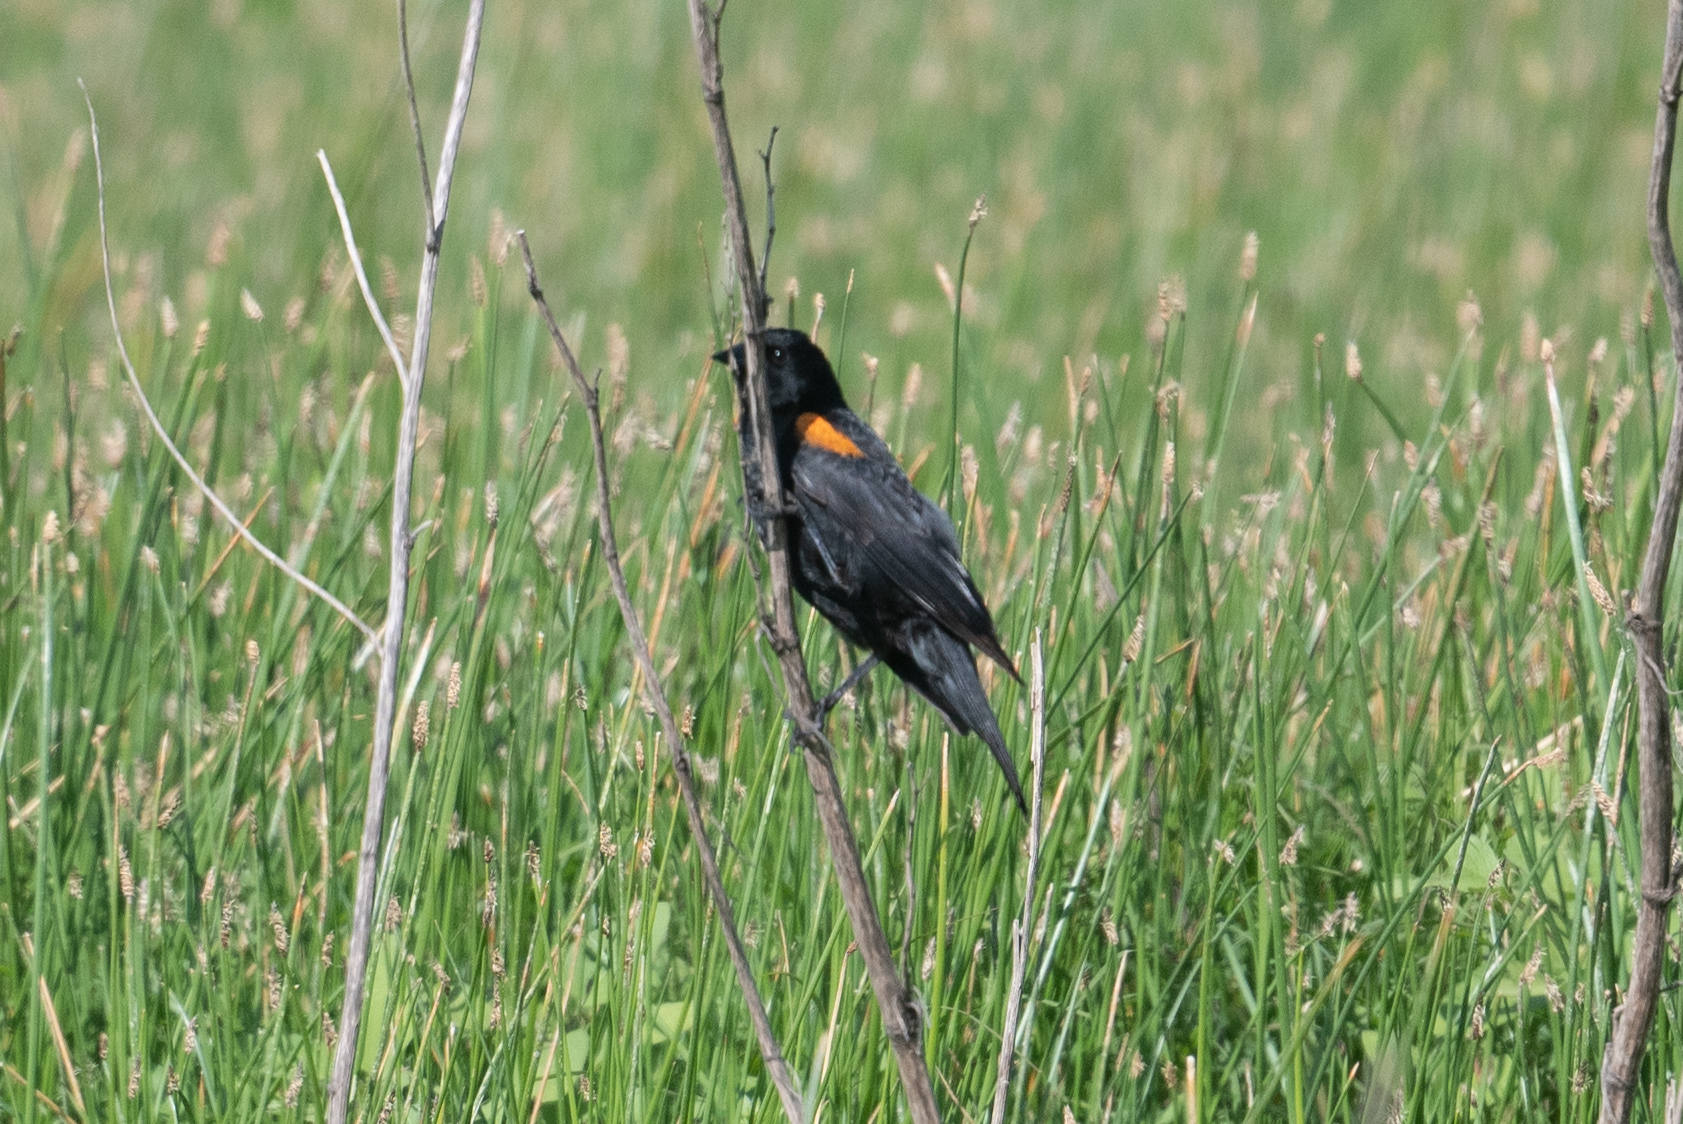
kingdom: Animalia
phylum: Chordata
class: Aves
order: Passeriformes
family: Icteridae
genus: Agelaius
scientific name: Agelaius phoeniceus
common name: Red-winged blackbird
